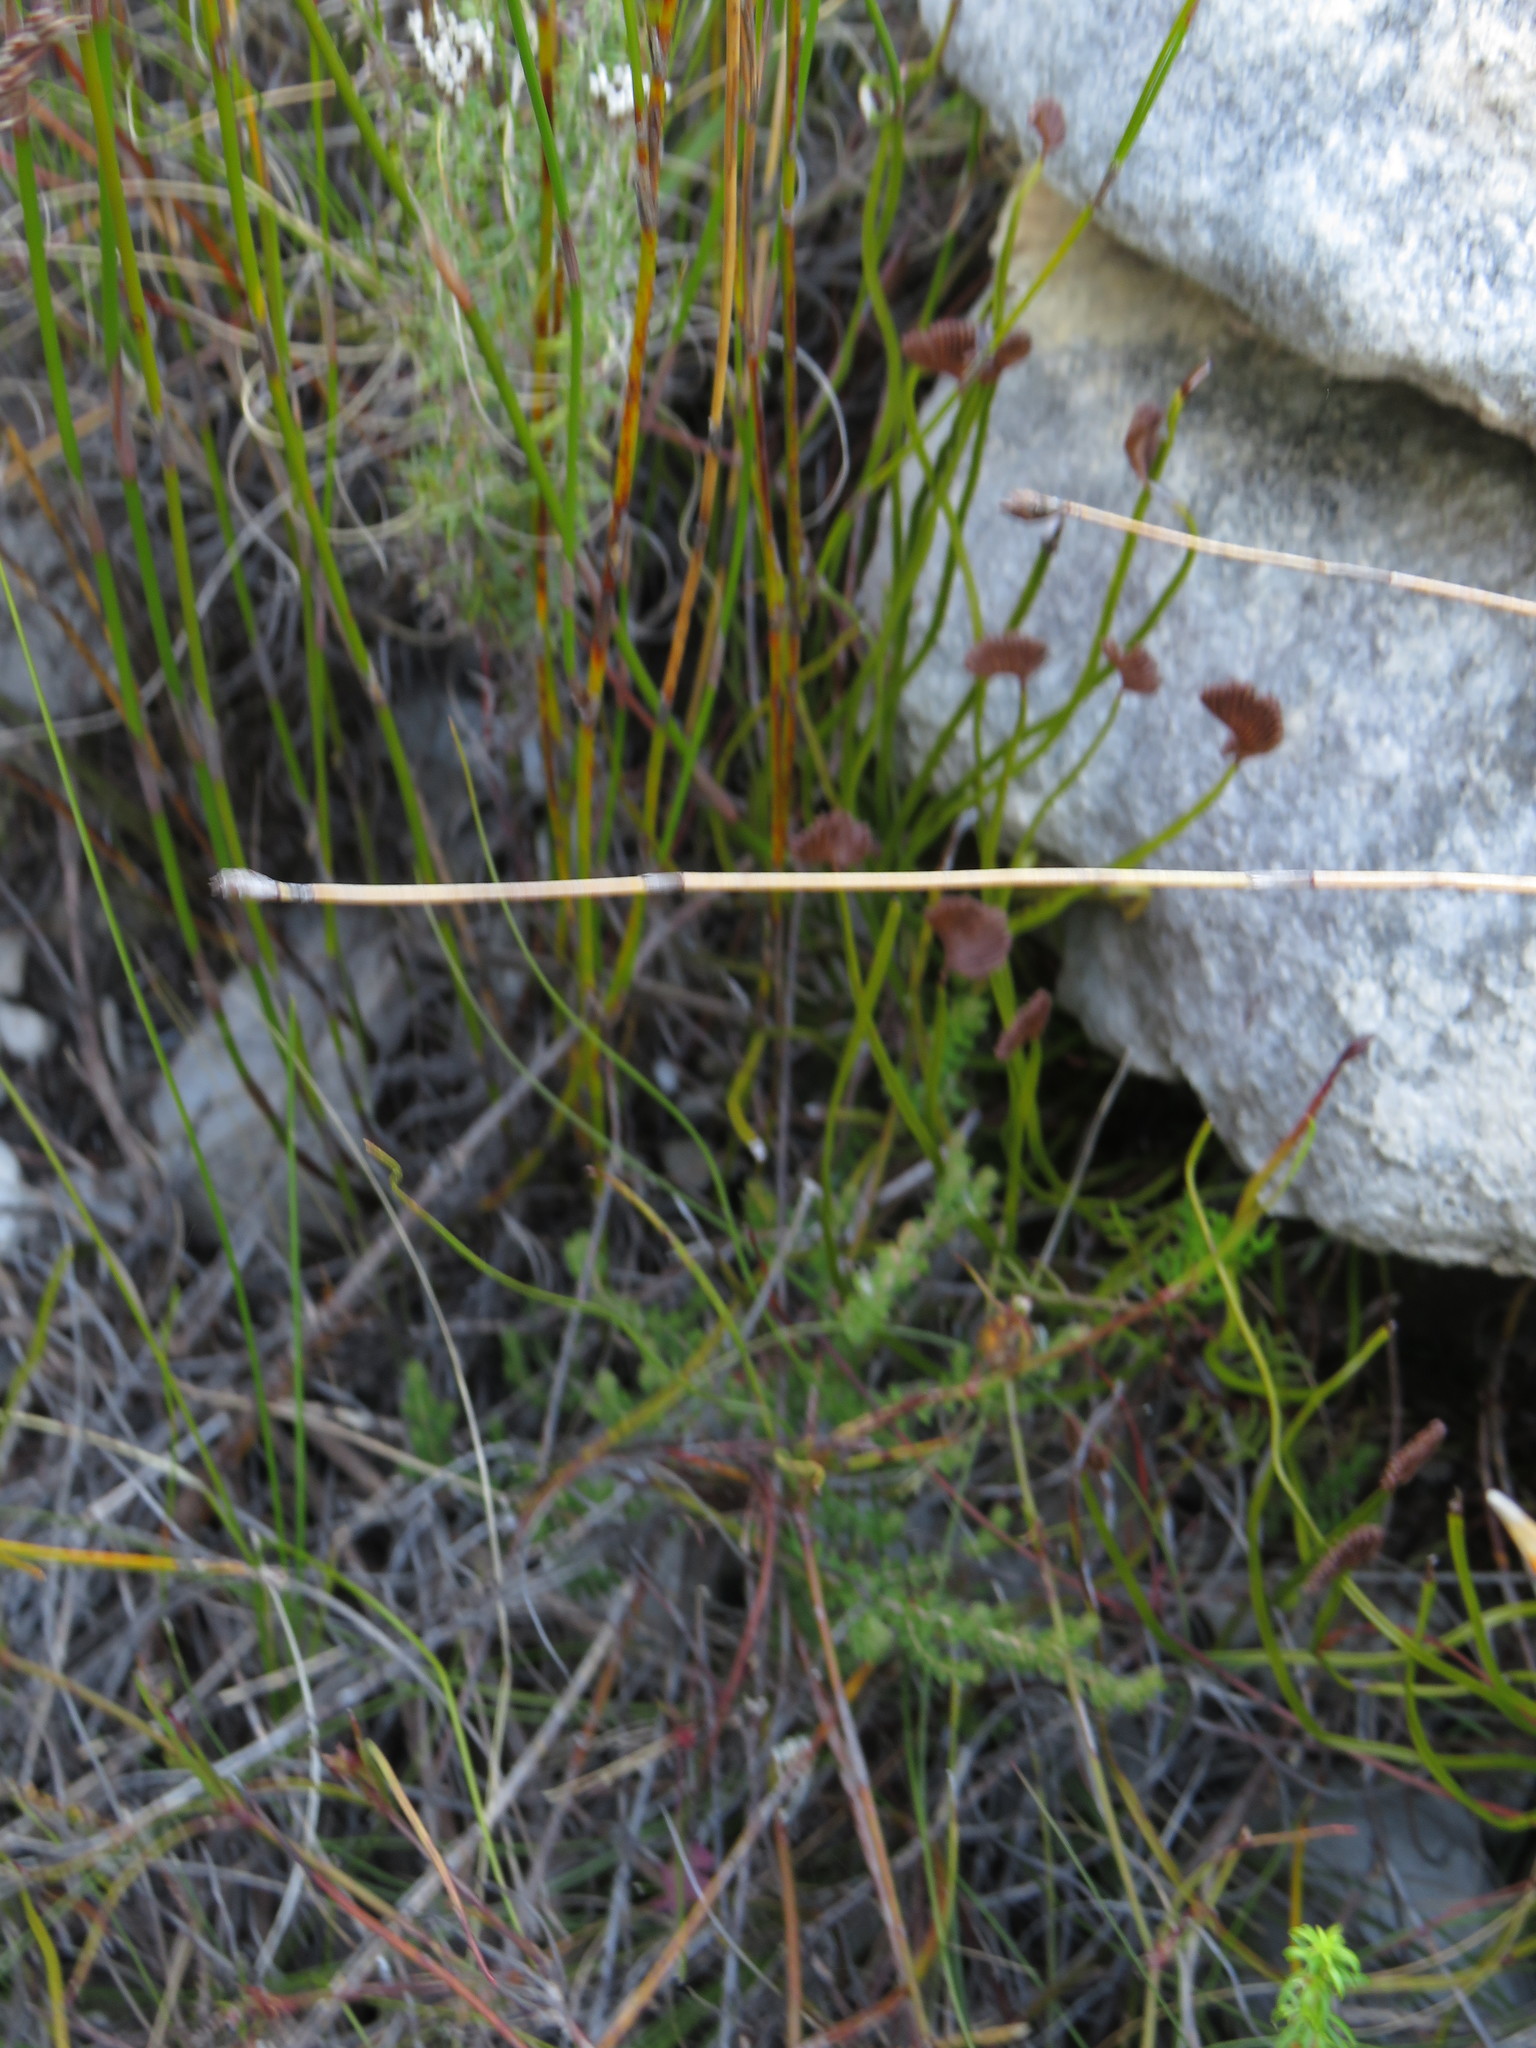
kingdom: Plantae
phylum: Tracheophyta
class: Polypodiopsida
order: Schizaeales
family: Schizaeaceae
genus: Schizaea
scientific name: Schizaea pectinata
